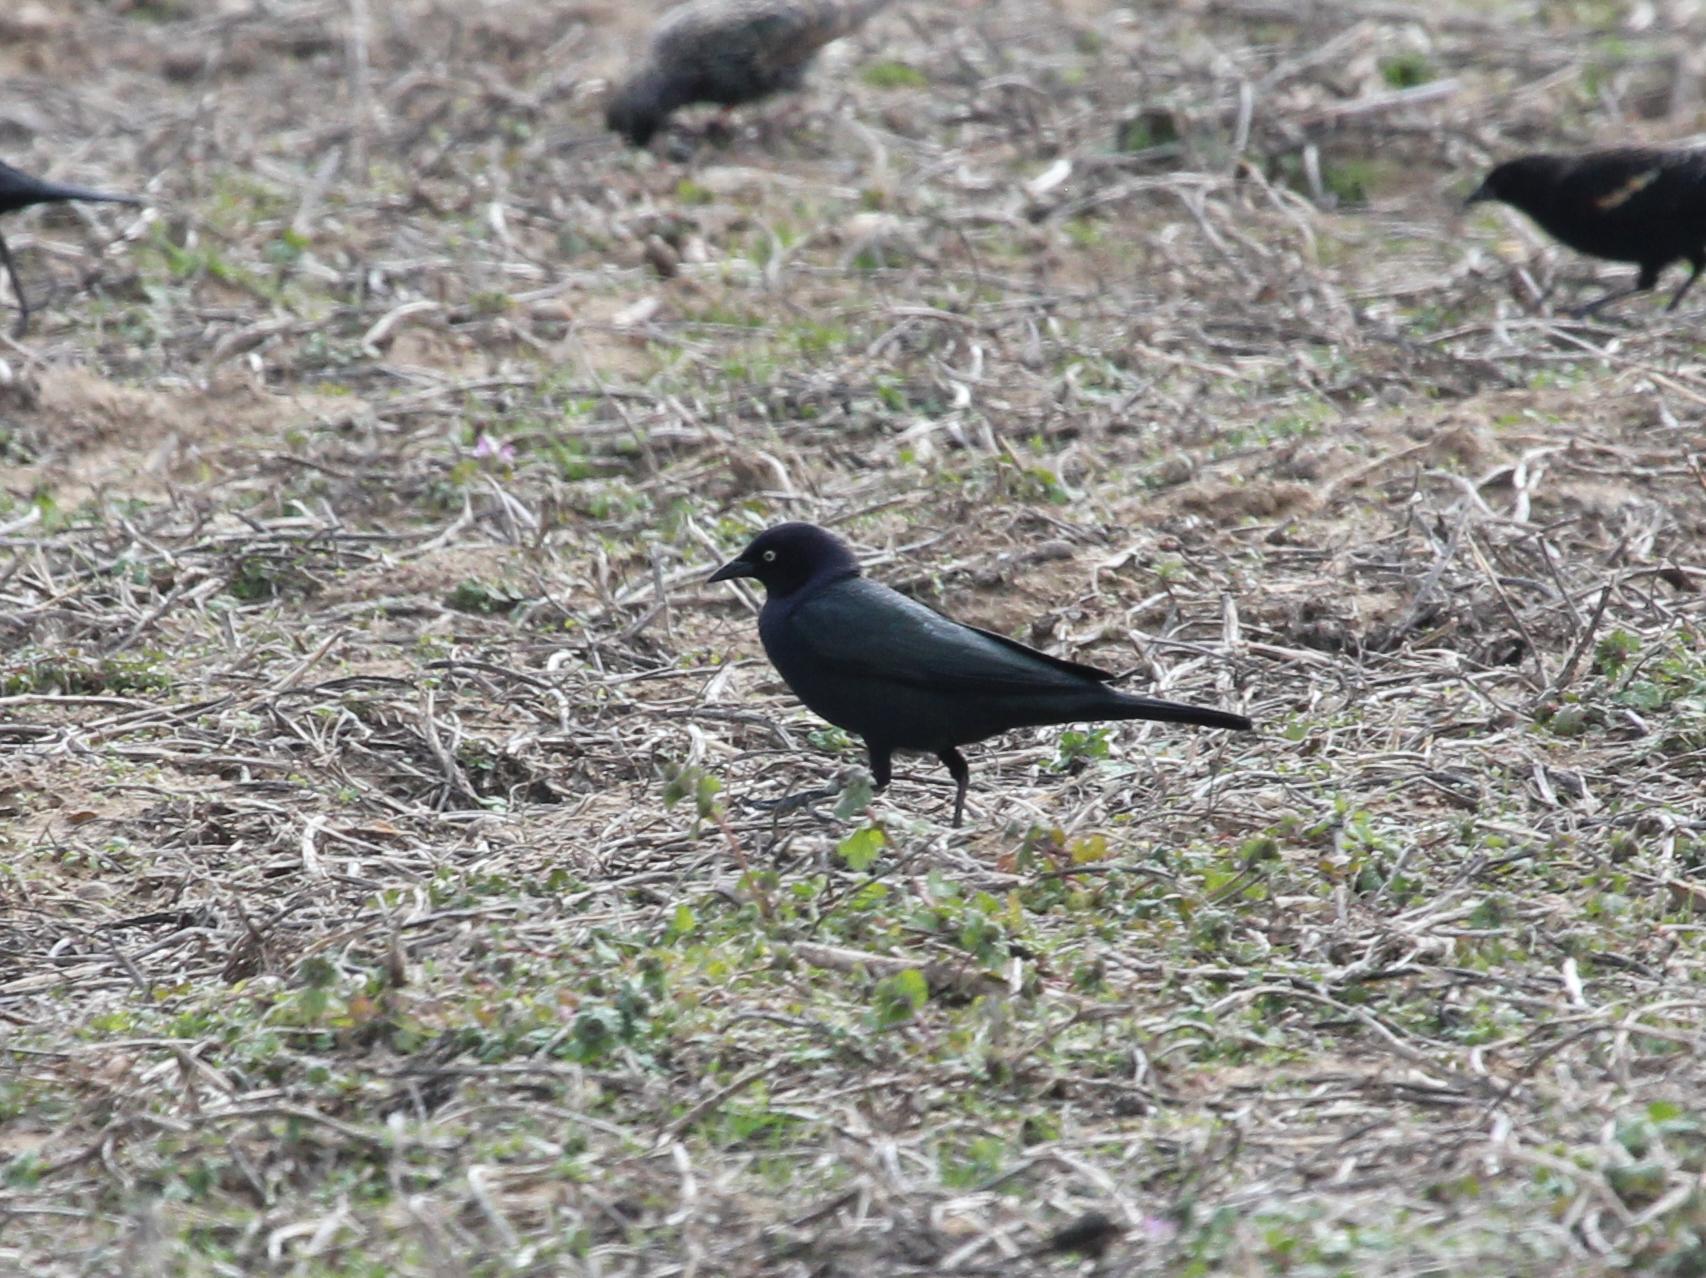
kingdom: Animalia
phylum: Chordata
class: Aves
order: Passeriformes
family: Icteridae
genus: Euphagus
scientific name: Euphagus cyanocephalus
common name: Brewer's blackbird
